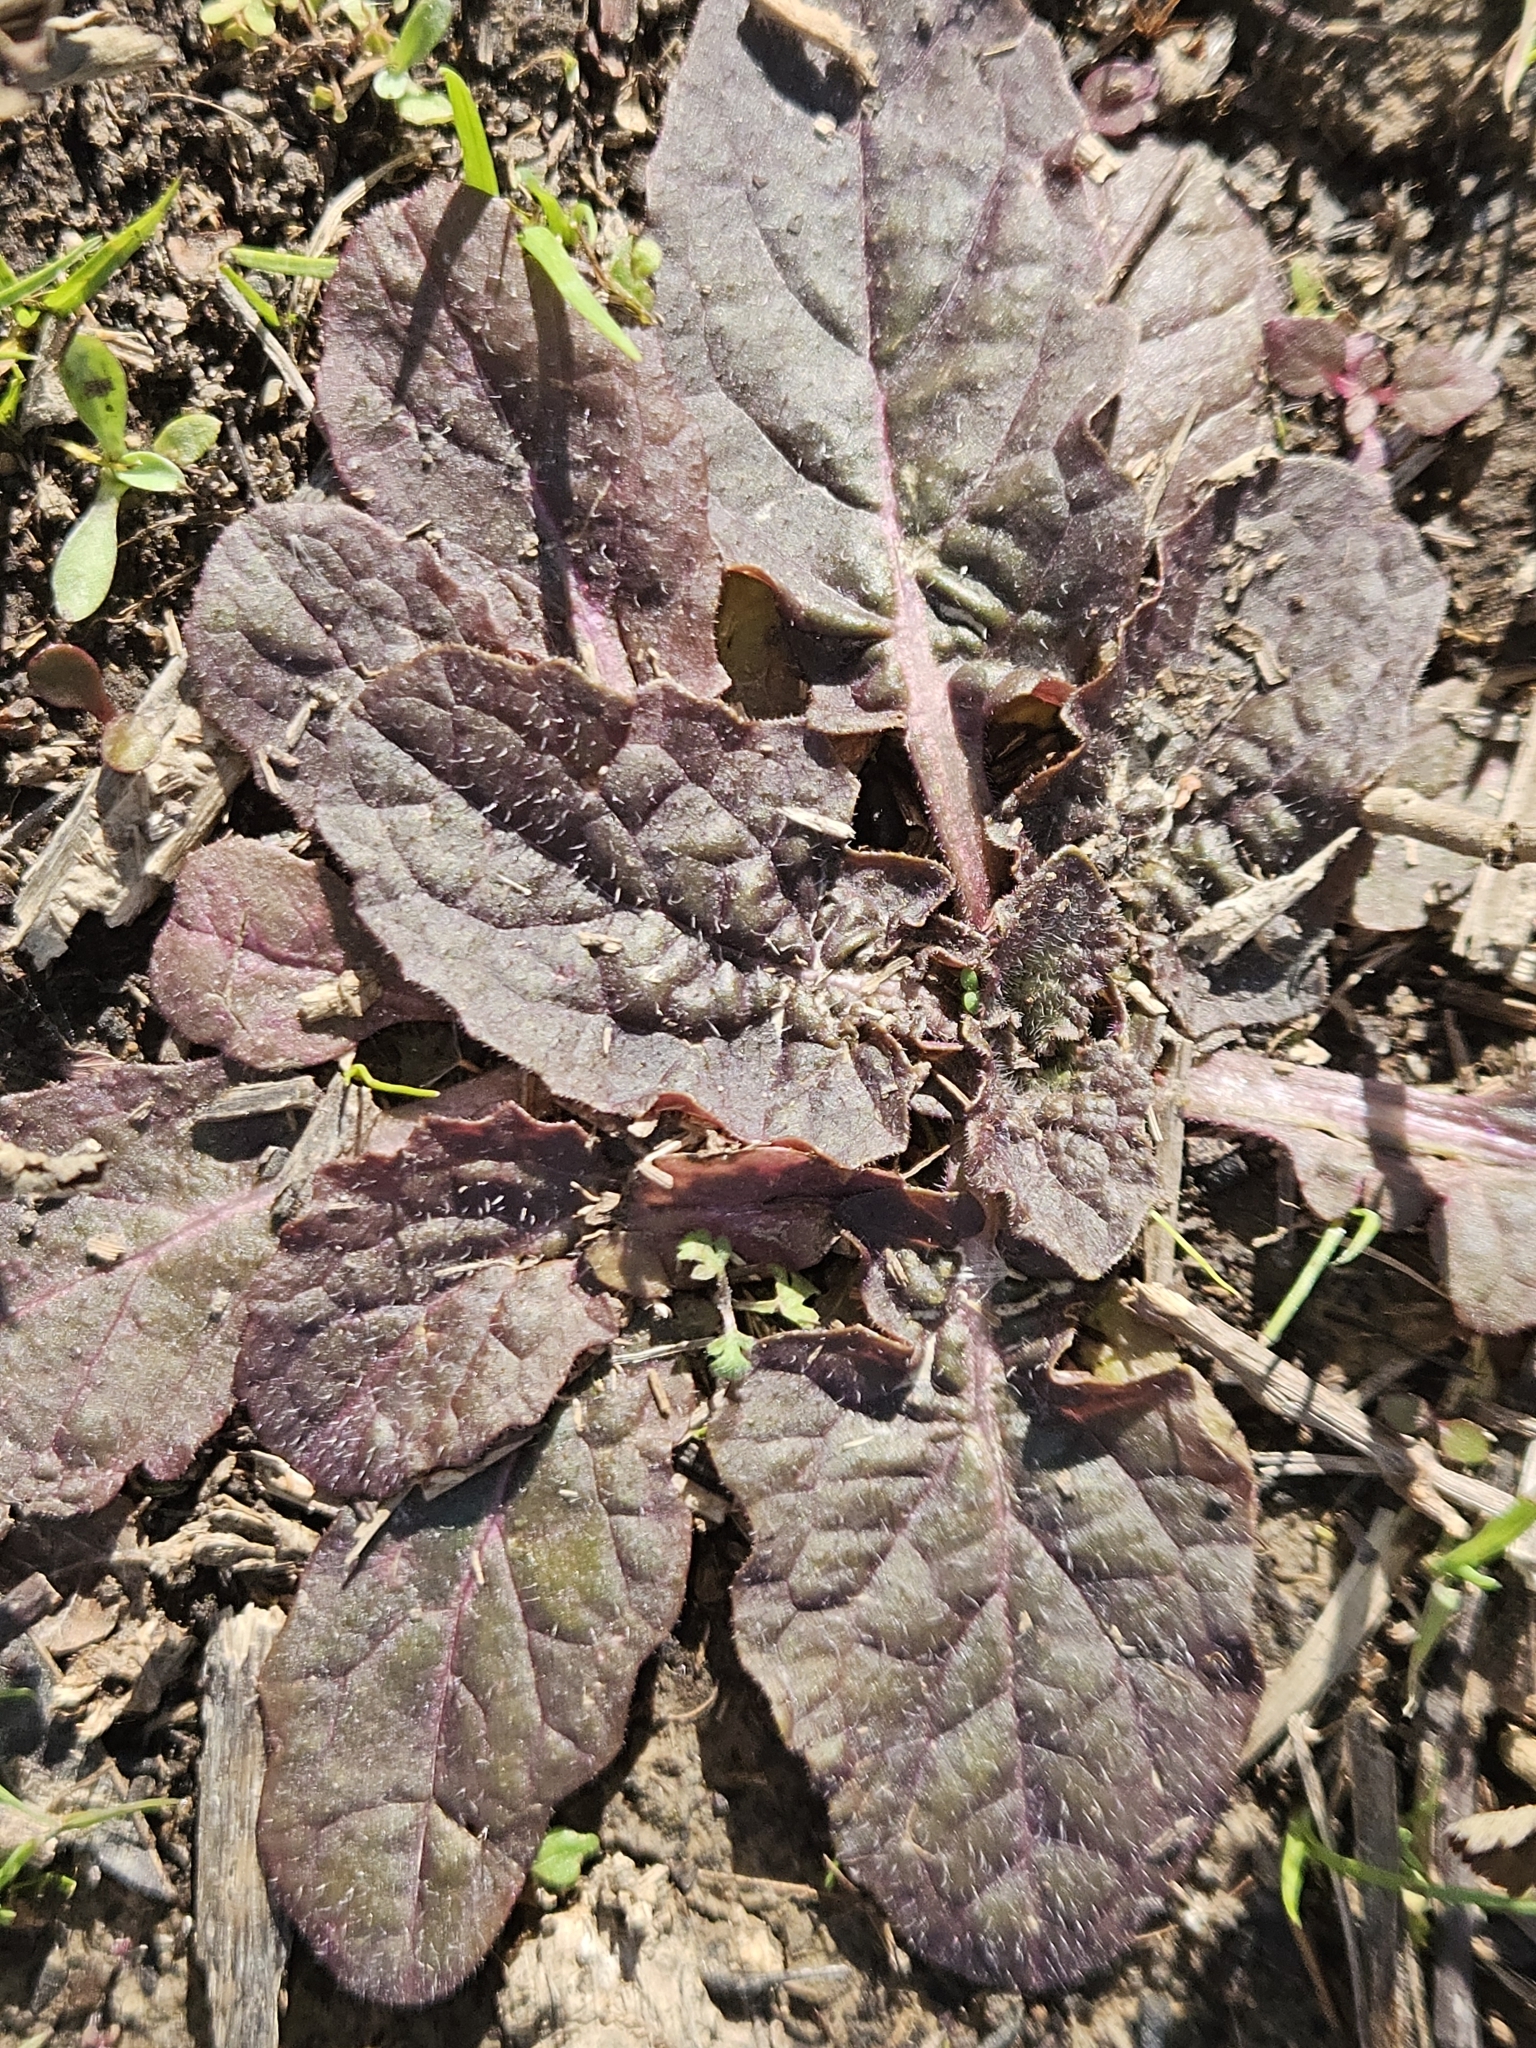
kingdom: Plantae
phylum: Tracheophyta
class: Magnoliopsida
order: Lamiales
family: Lamiaceae
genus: Salvia
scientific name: Salvia lyrata
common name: Cancerweed
